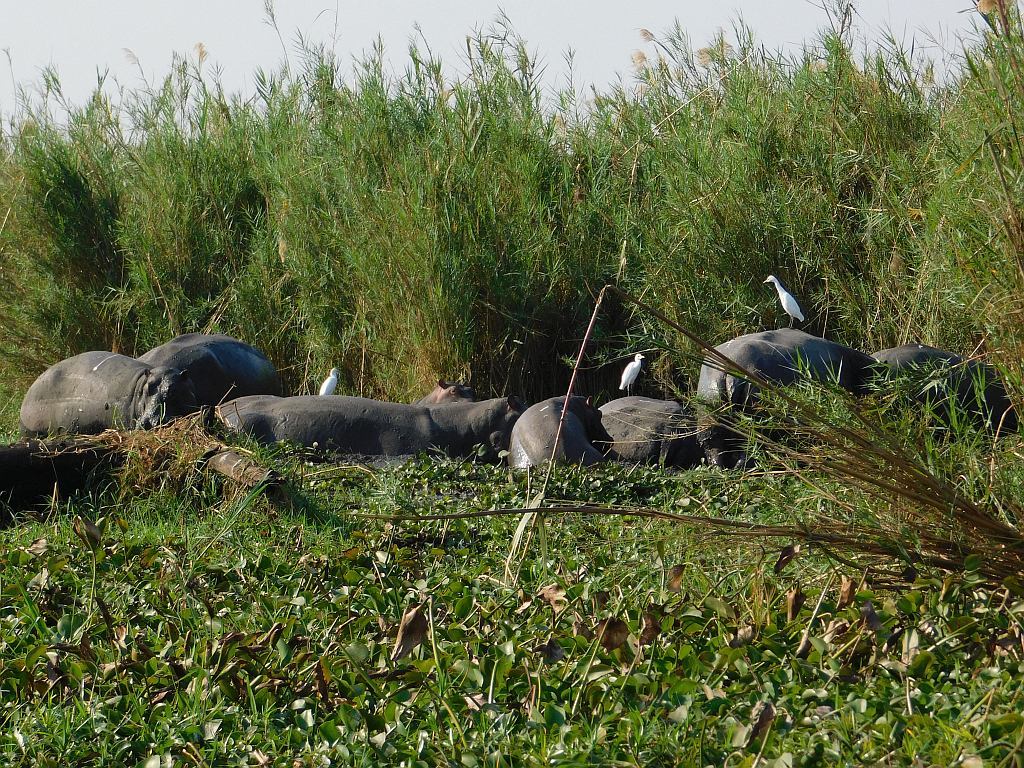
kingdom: Animalia
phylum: Chordata
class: Mammalia
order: Artiodactyla
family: Hippopotamidae
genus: Hippopotamus
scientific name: Hippopotamus amphibius
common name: Common hippopotamus
